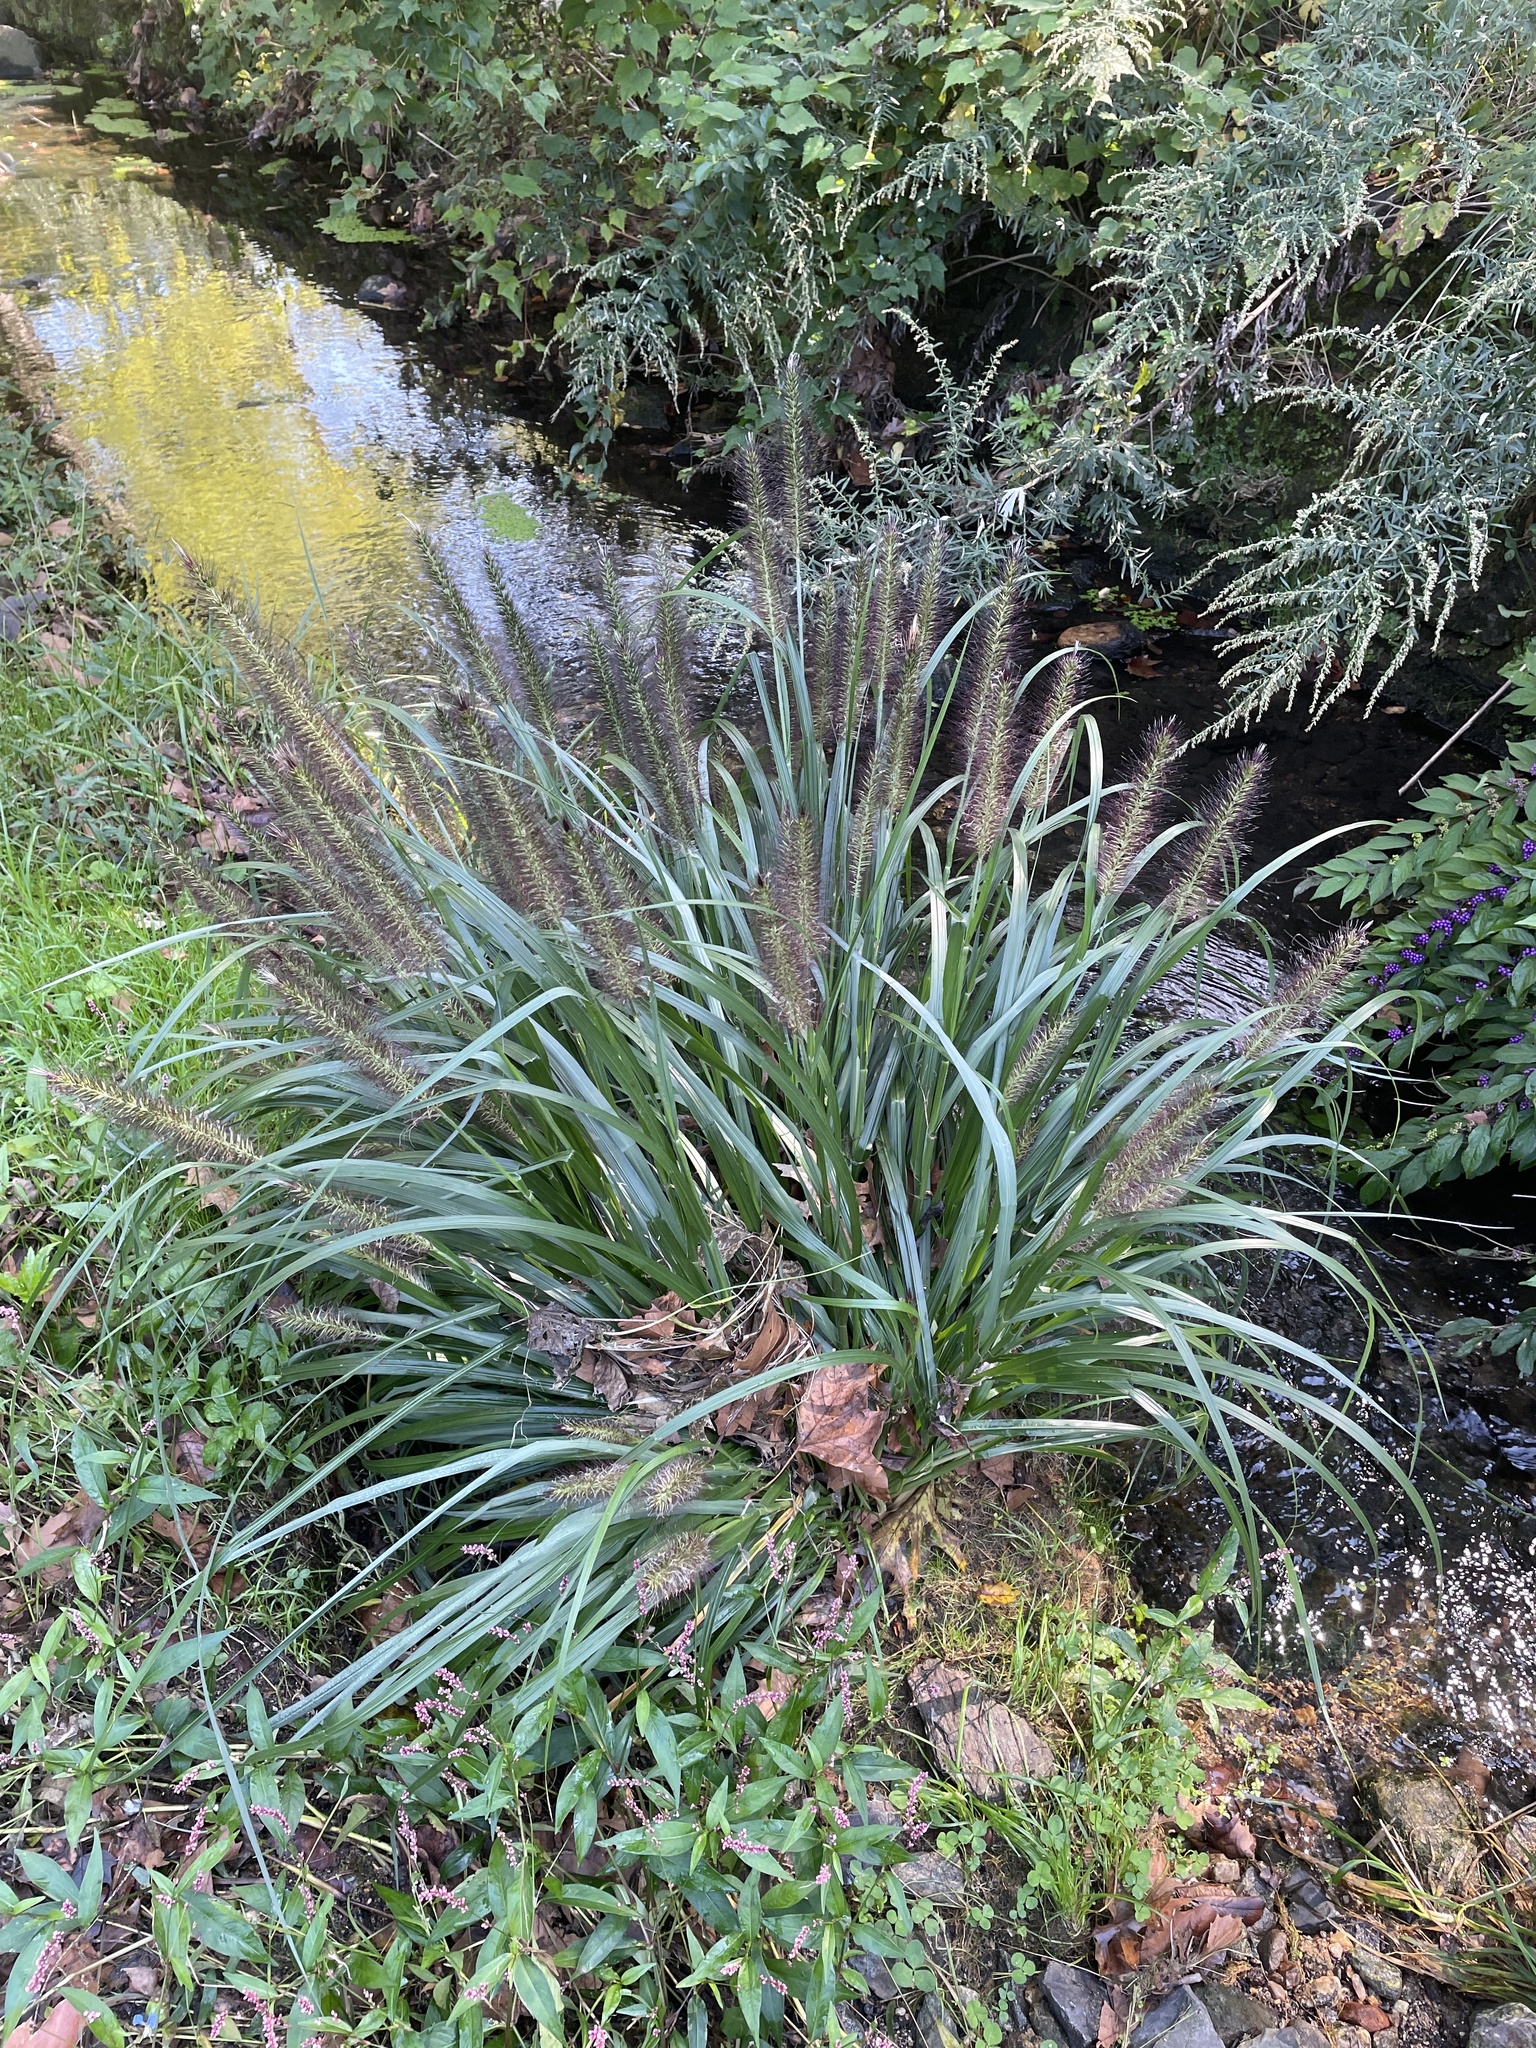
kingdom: Plantae
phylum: Tracheophyta
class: Liliopsida
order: Poales
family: Poaceae
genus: Cenchrus
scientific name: Cenchrus alopecuroides
